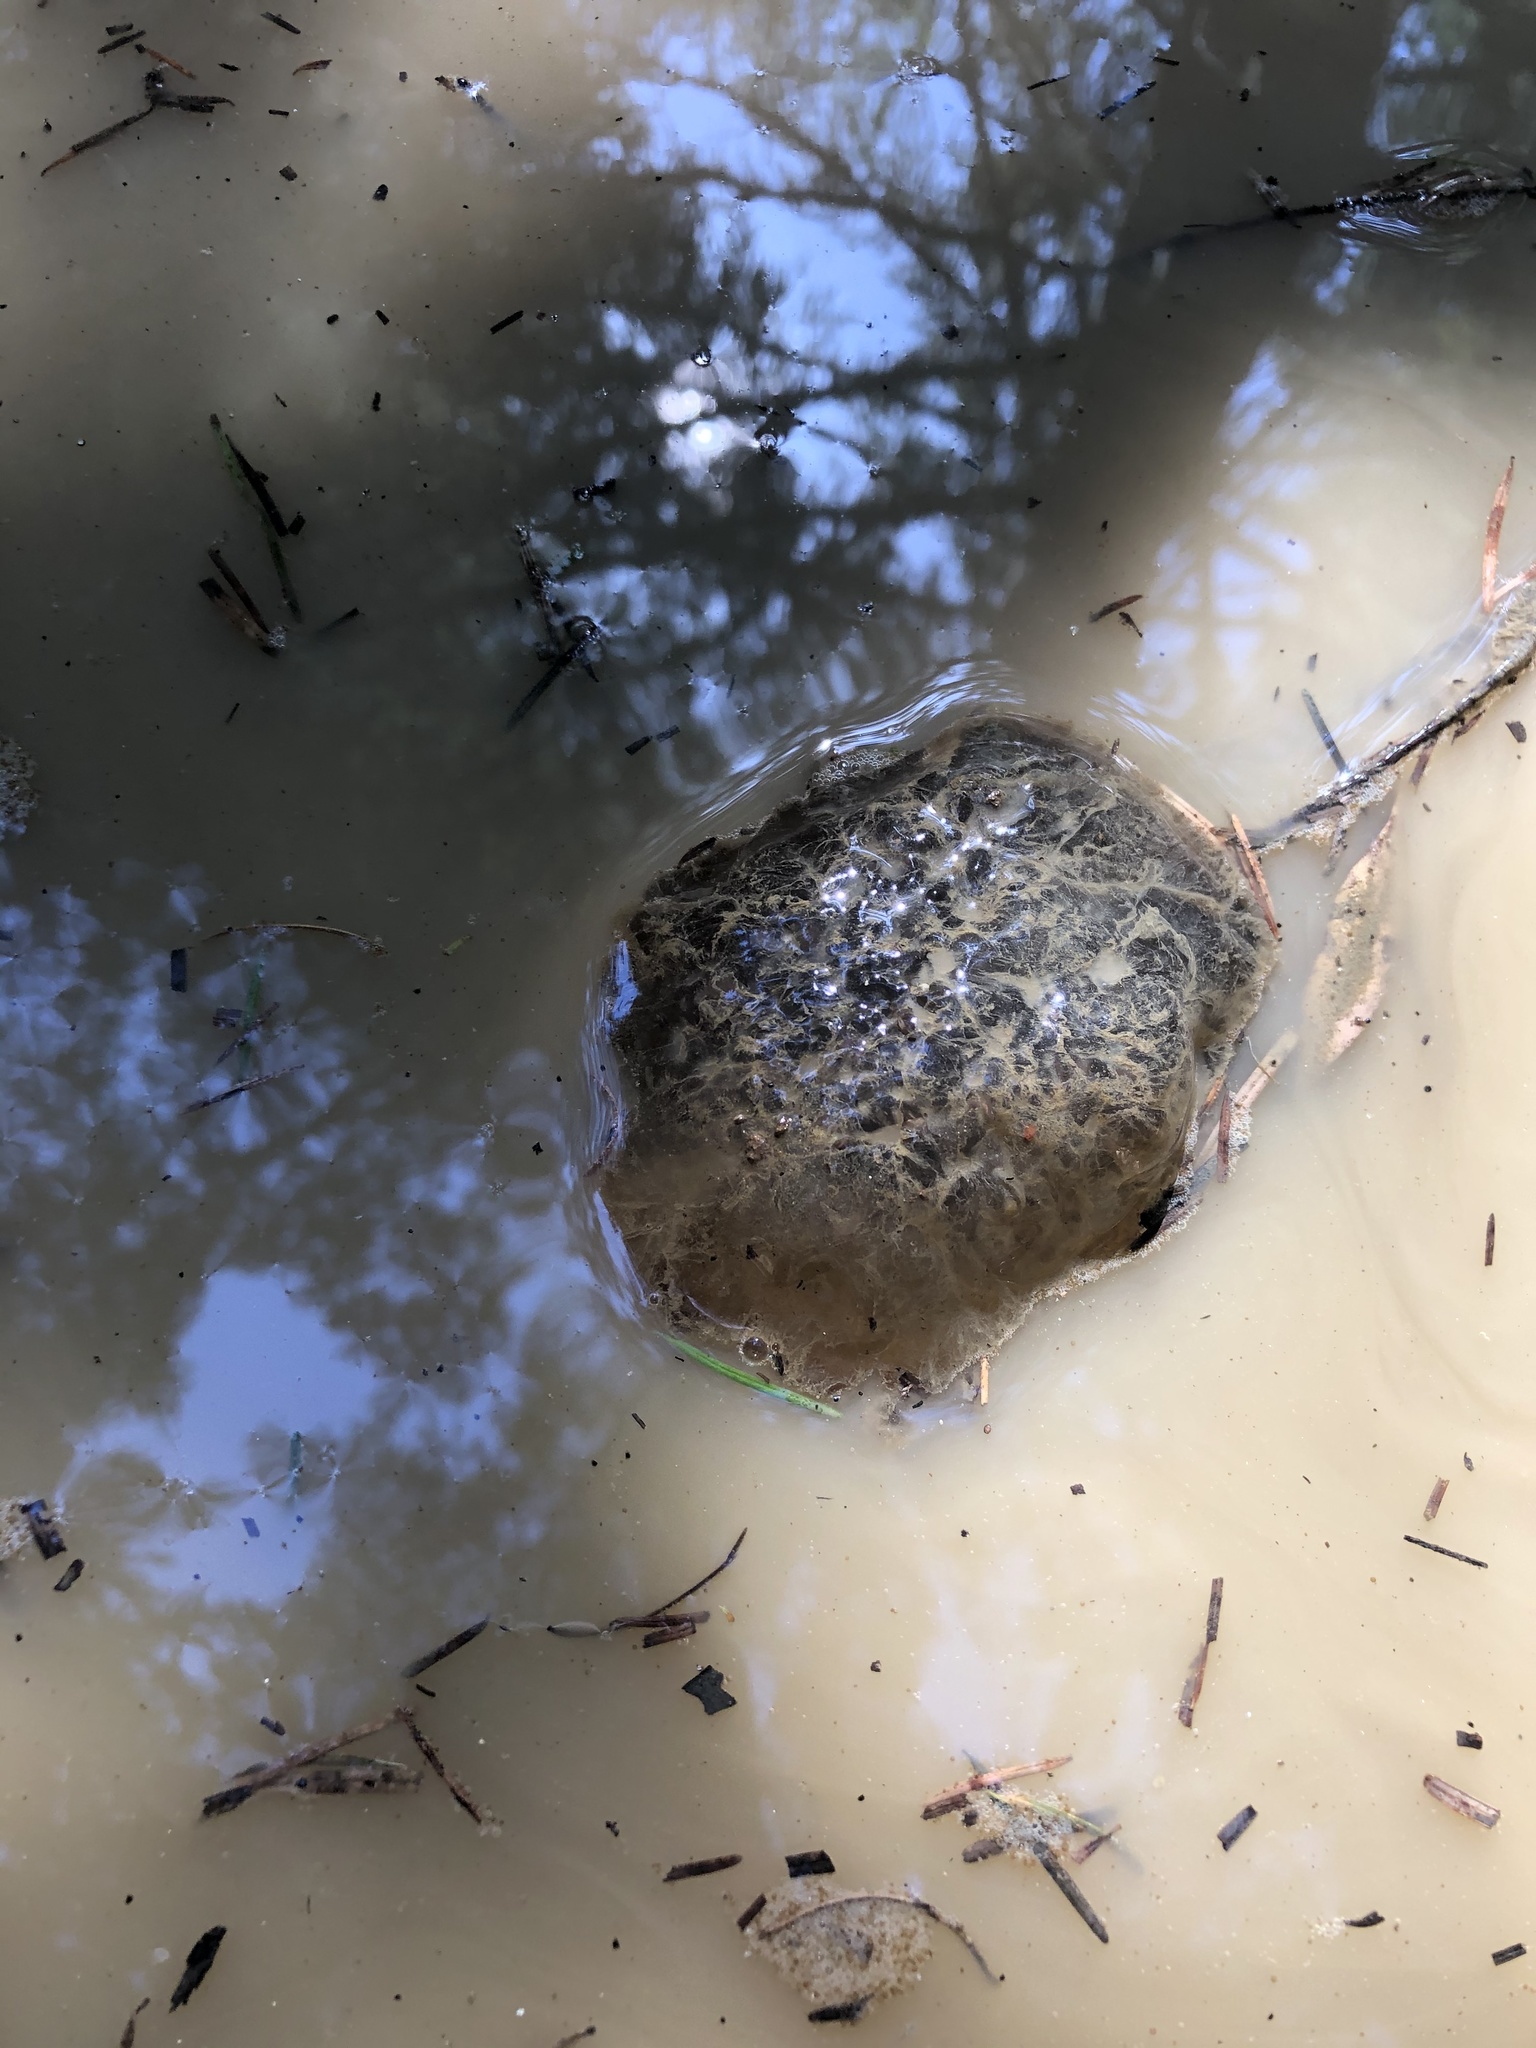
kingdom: Animalia
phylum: Chordata
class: Amphibia
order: Caudata
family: Ambystomatidae
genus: Ambystoma
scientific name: Ambystoma gracile
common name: Northwestern salamander
